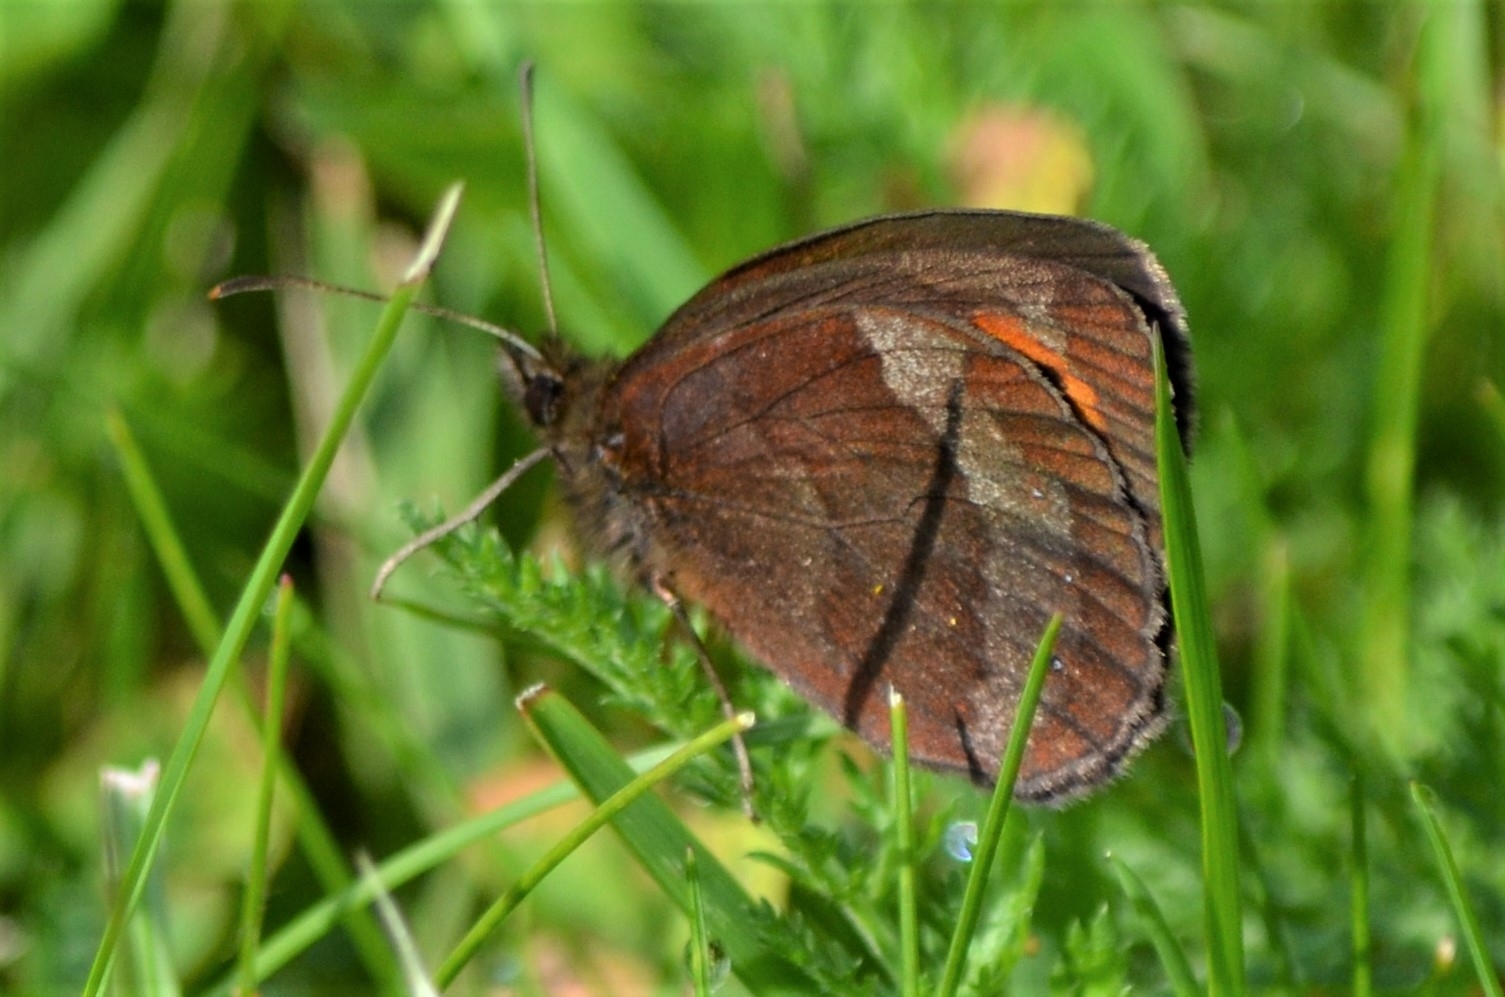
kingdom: Animalia
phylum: Arthropoda
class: Insecta
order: Lepidoptera
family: Nymphalidae
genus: Erebia
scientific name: Erebia aethiops
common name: Scotch argus
